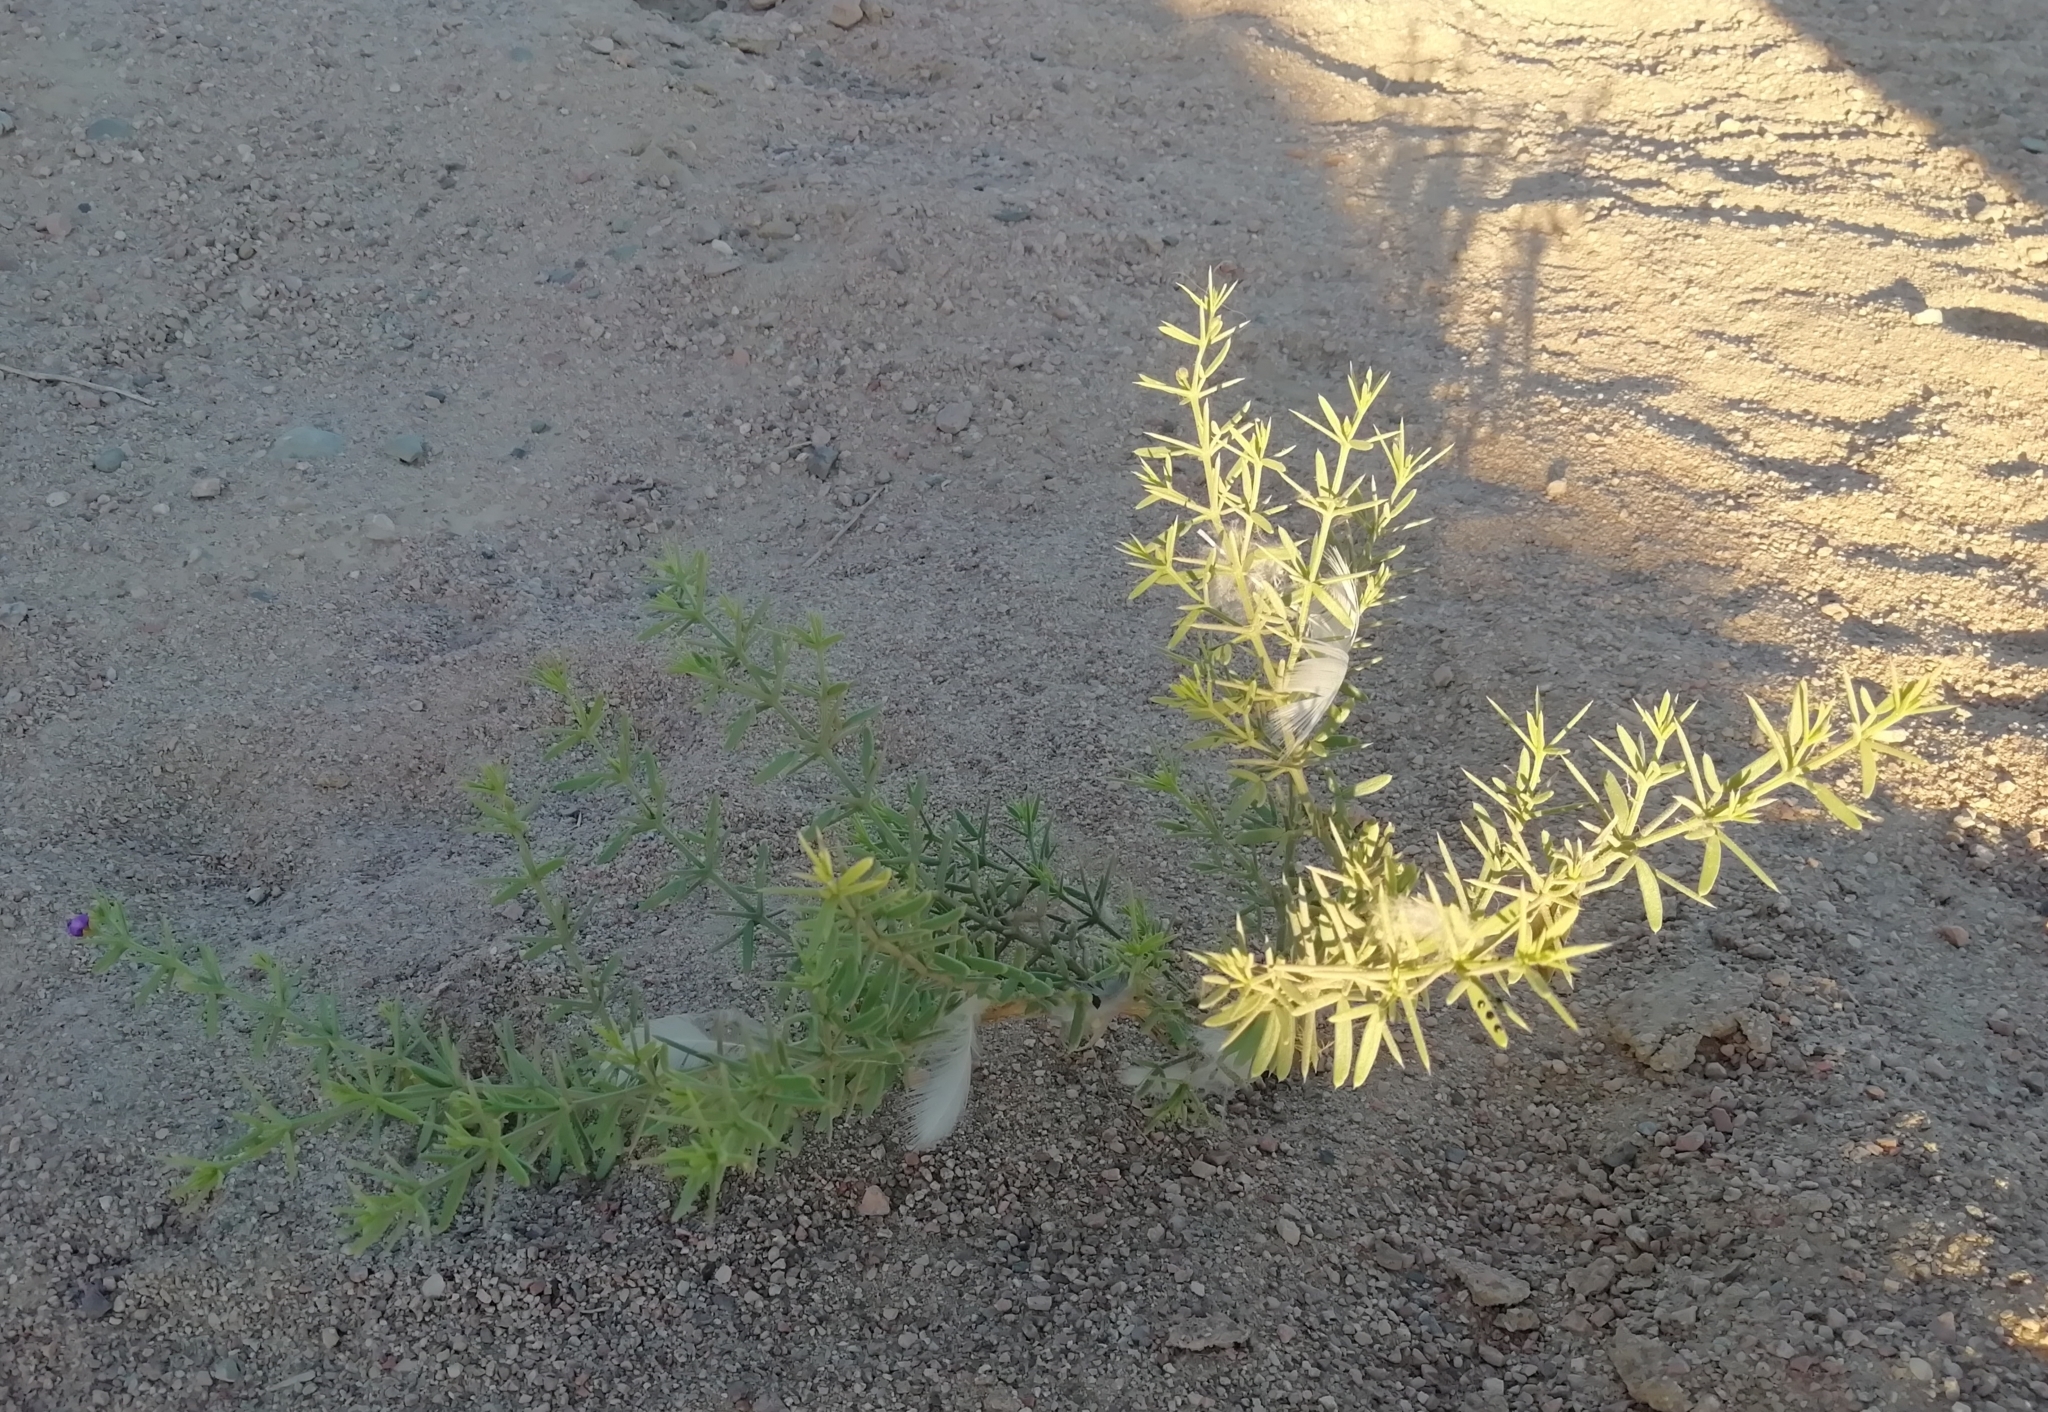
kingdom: Plantae
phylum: Tracheophyta
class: Magnoliopsida
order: Zygophyllales
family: Zygophyllaceae
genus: Fagonia
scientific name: Fagonia arabica
